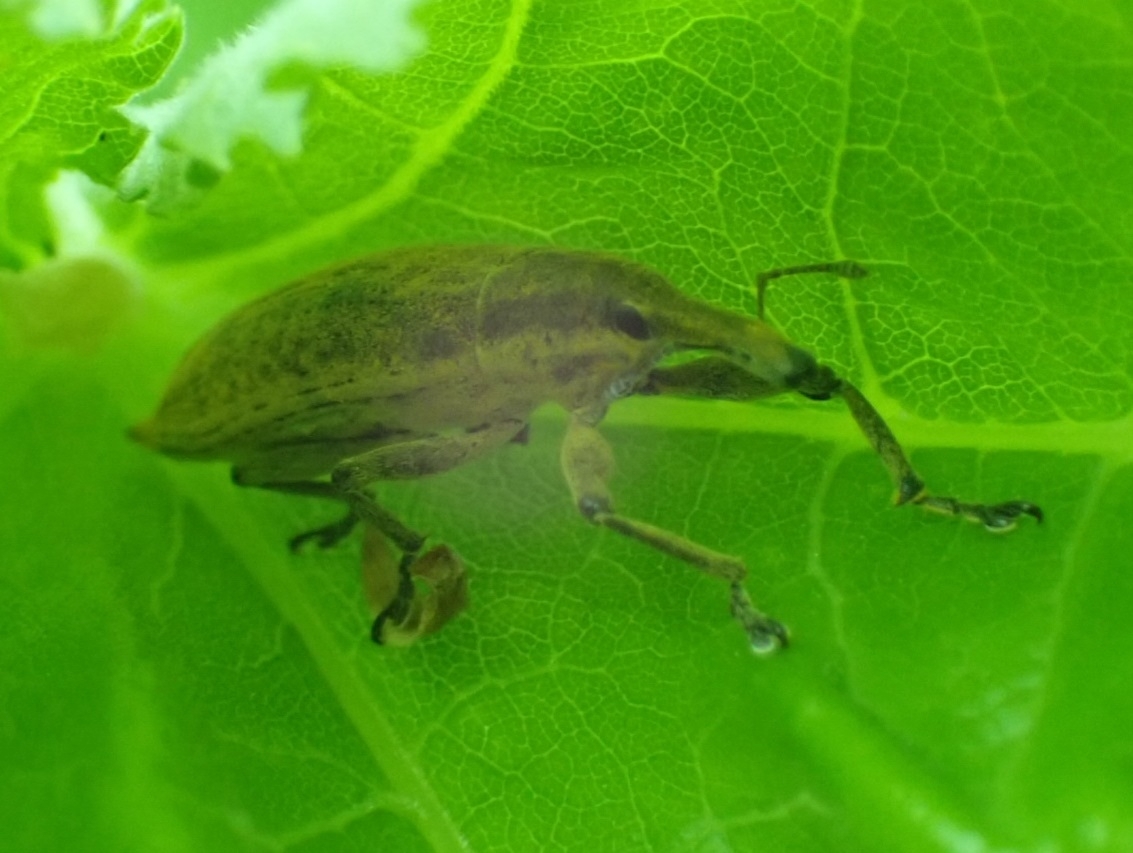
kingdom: Animalia
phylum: Arthropoda
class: Insecta
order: Coleoptera
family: Curculionidae
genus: Lixus
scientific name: Lixus iridis
